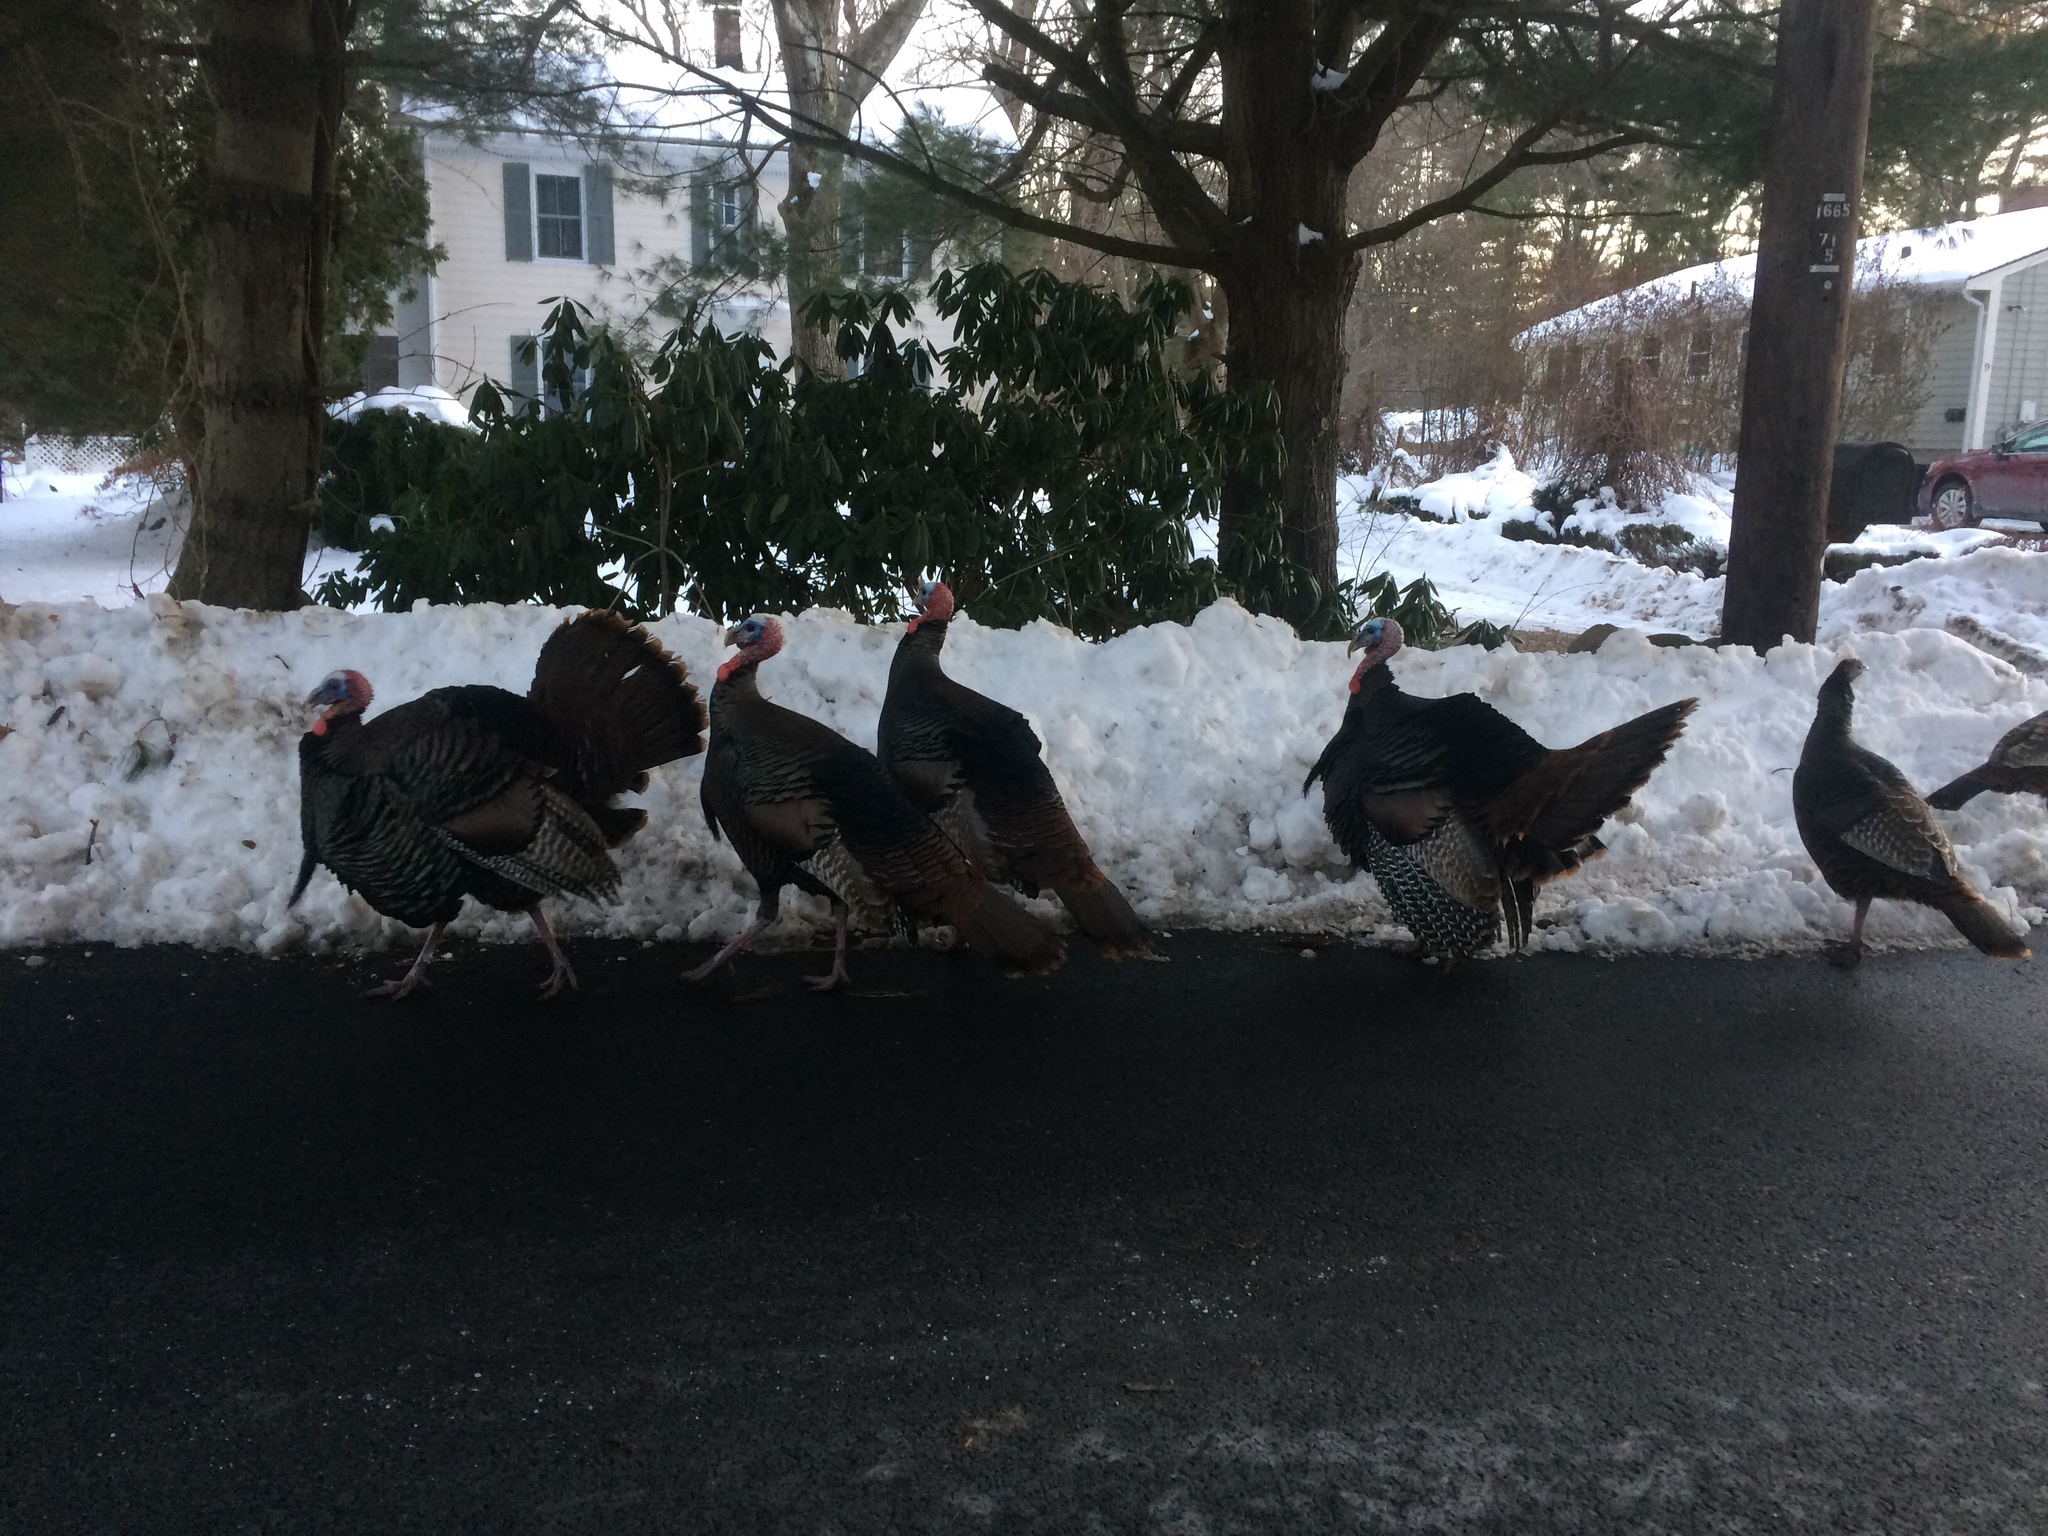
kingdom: Animalia
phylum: Chordata
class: Aves
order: Galliformes
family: Phasianidae
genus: Meleagris
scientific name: Meleagris gallopavo
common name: Wild turkey
